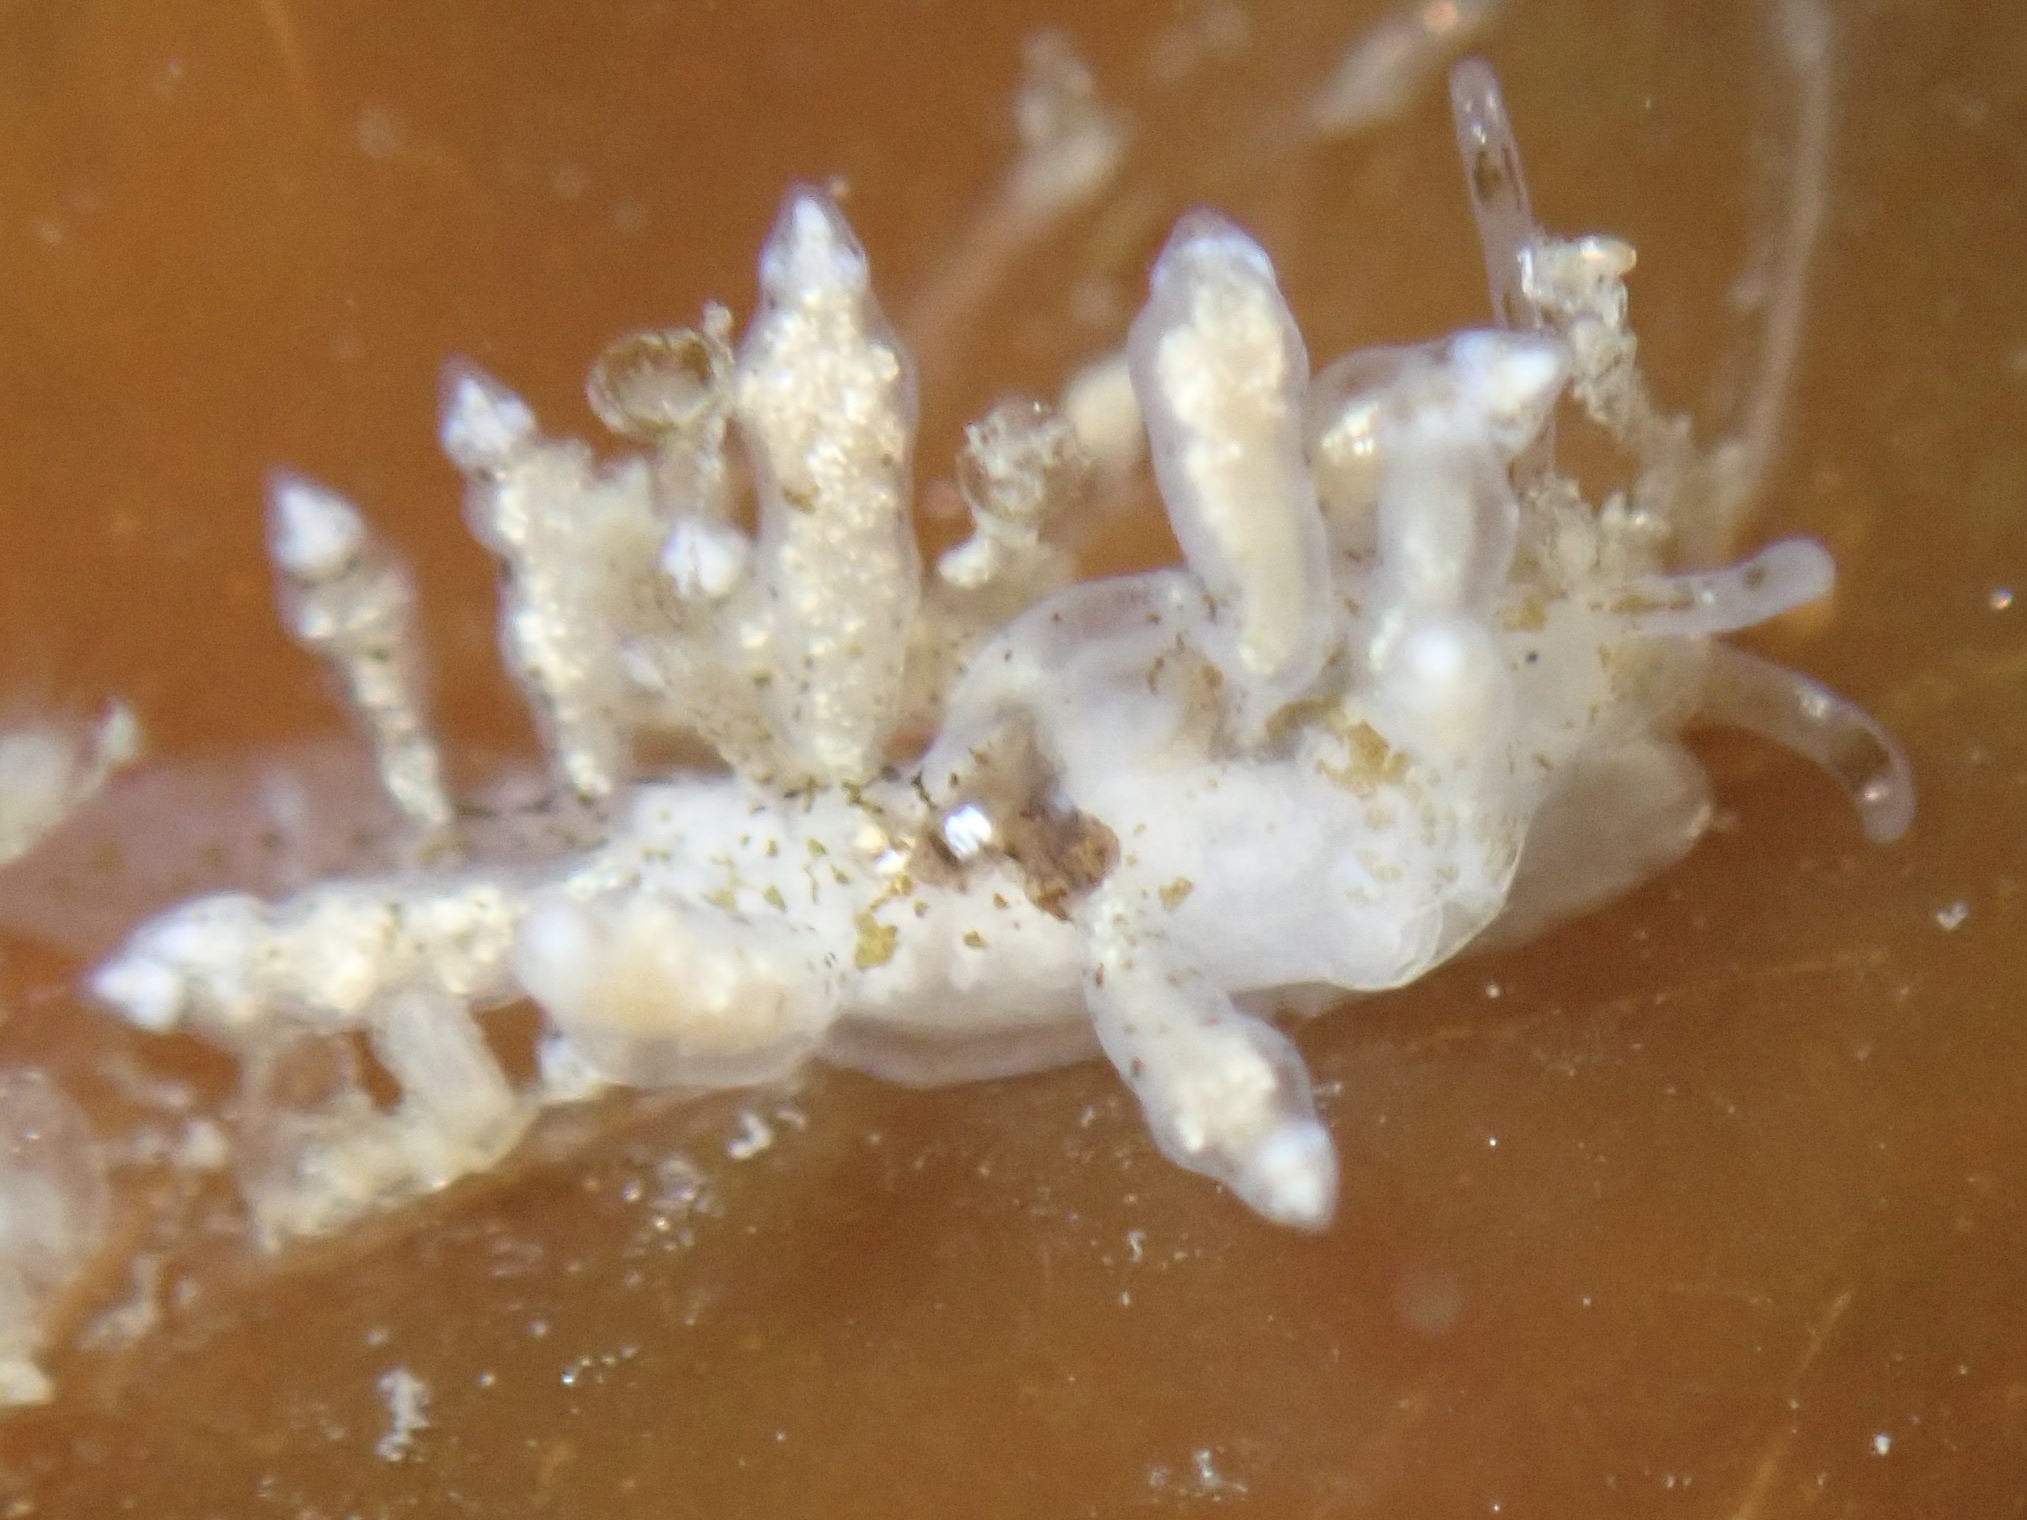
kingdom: Animalia
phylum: Mollusca
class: Gastropoda
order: Nudibranchia
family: Eubranchidae
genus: Eubranchus
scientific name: Eubranchus olivaceus
